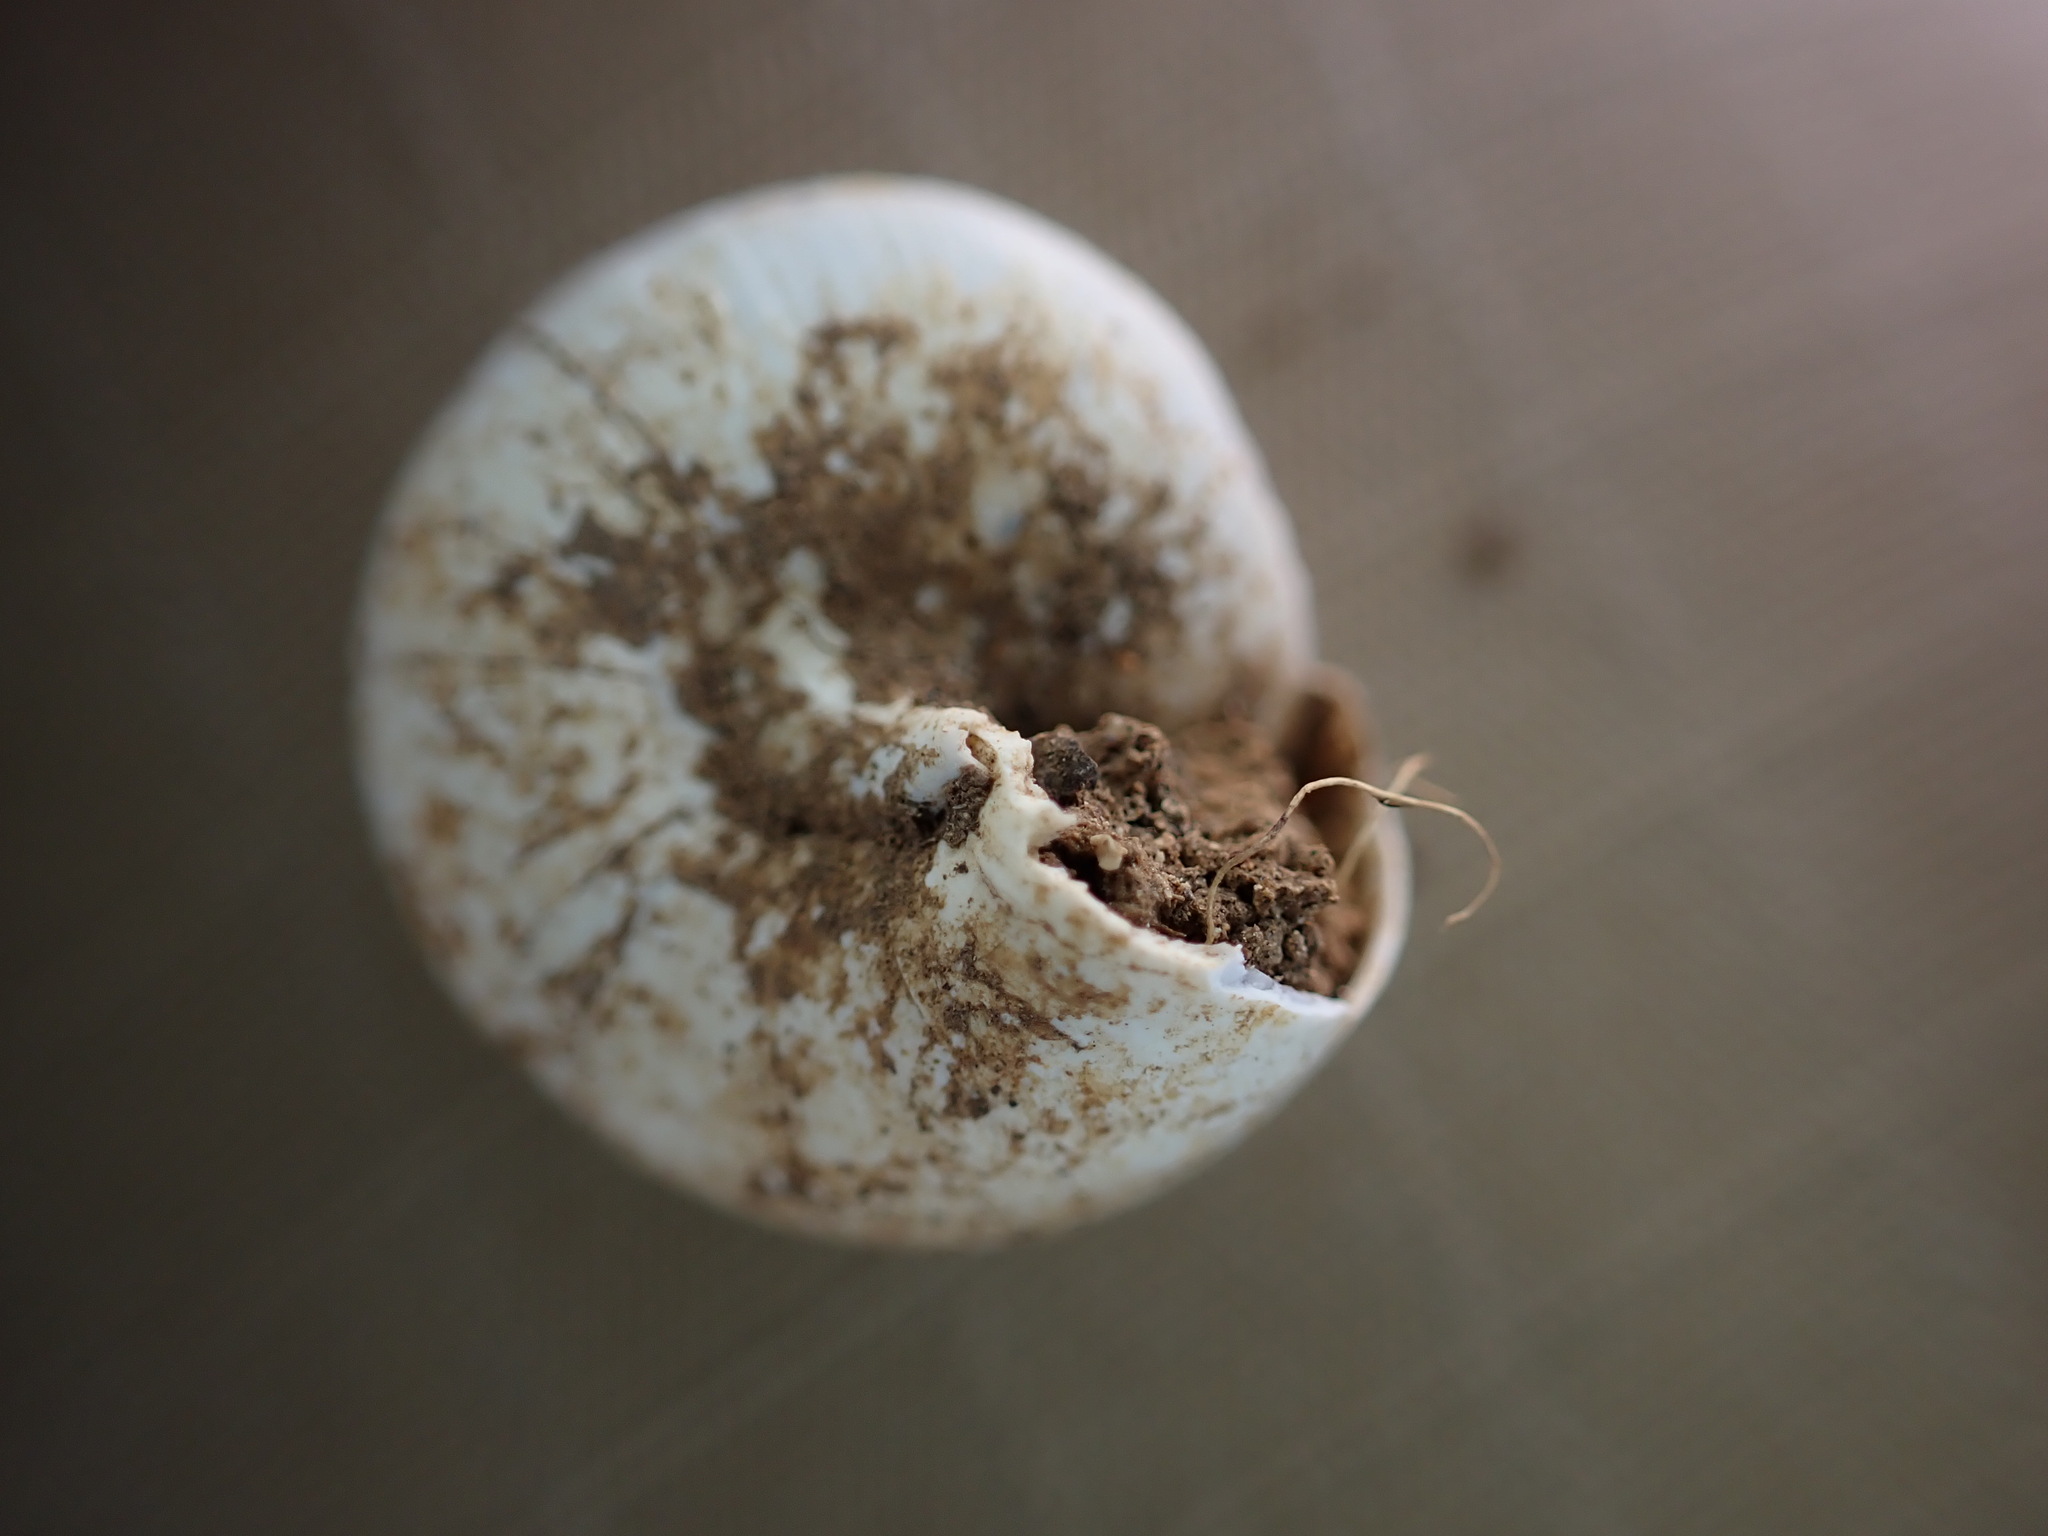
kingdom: Animalia
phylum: Mollusca
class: Gastropoda
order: Stylommatophora
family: Sphincterochilidae
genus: Sphincterochila
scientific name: Sphincterochila candidissima
